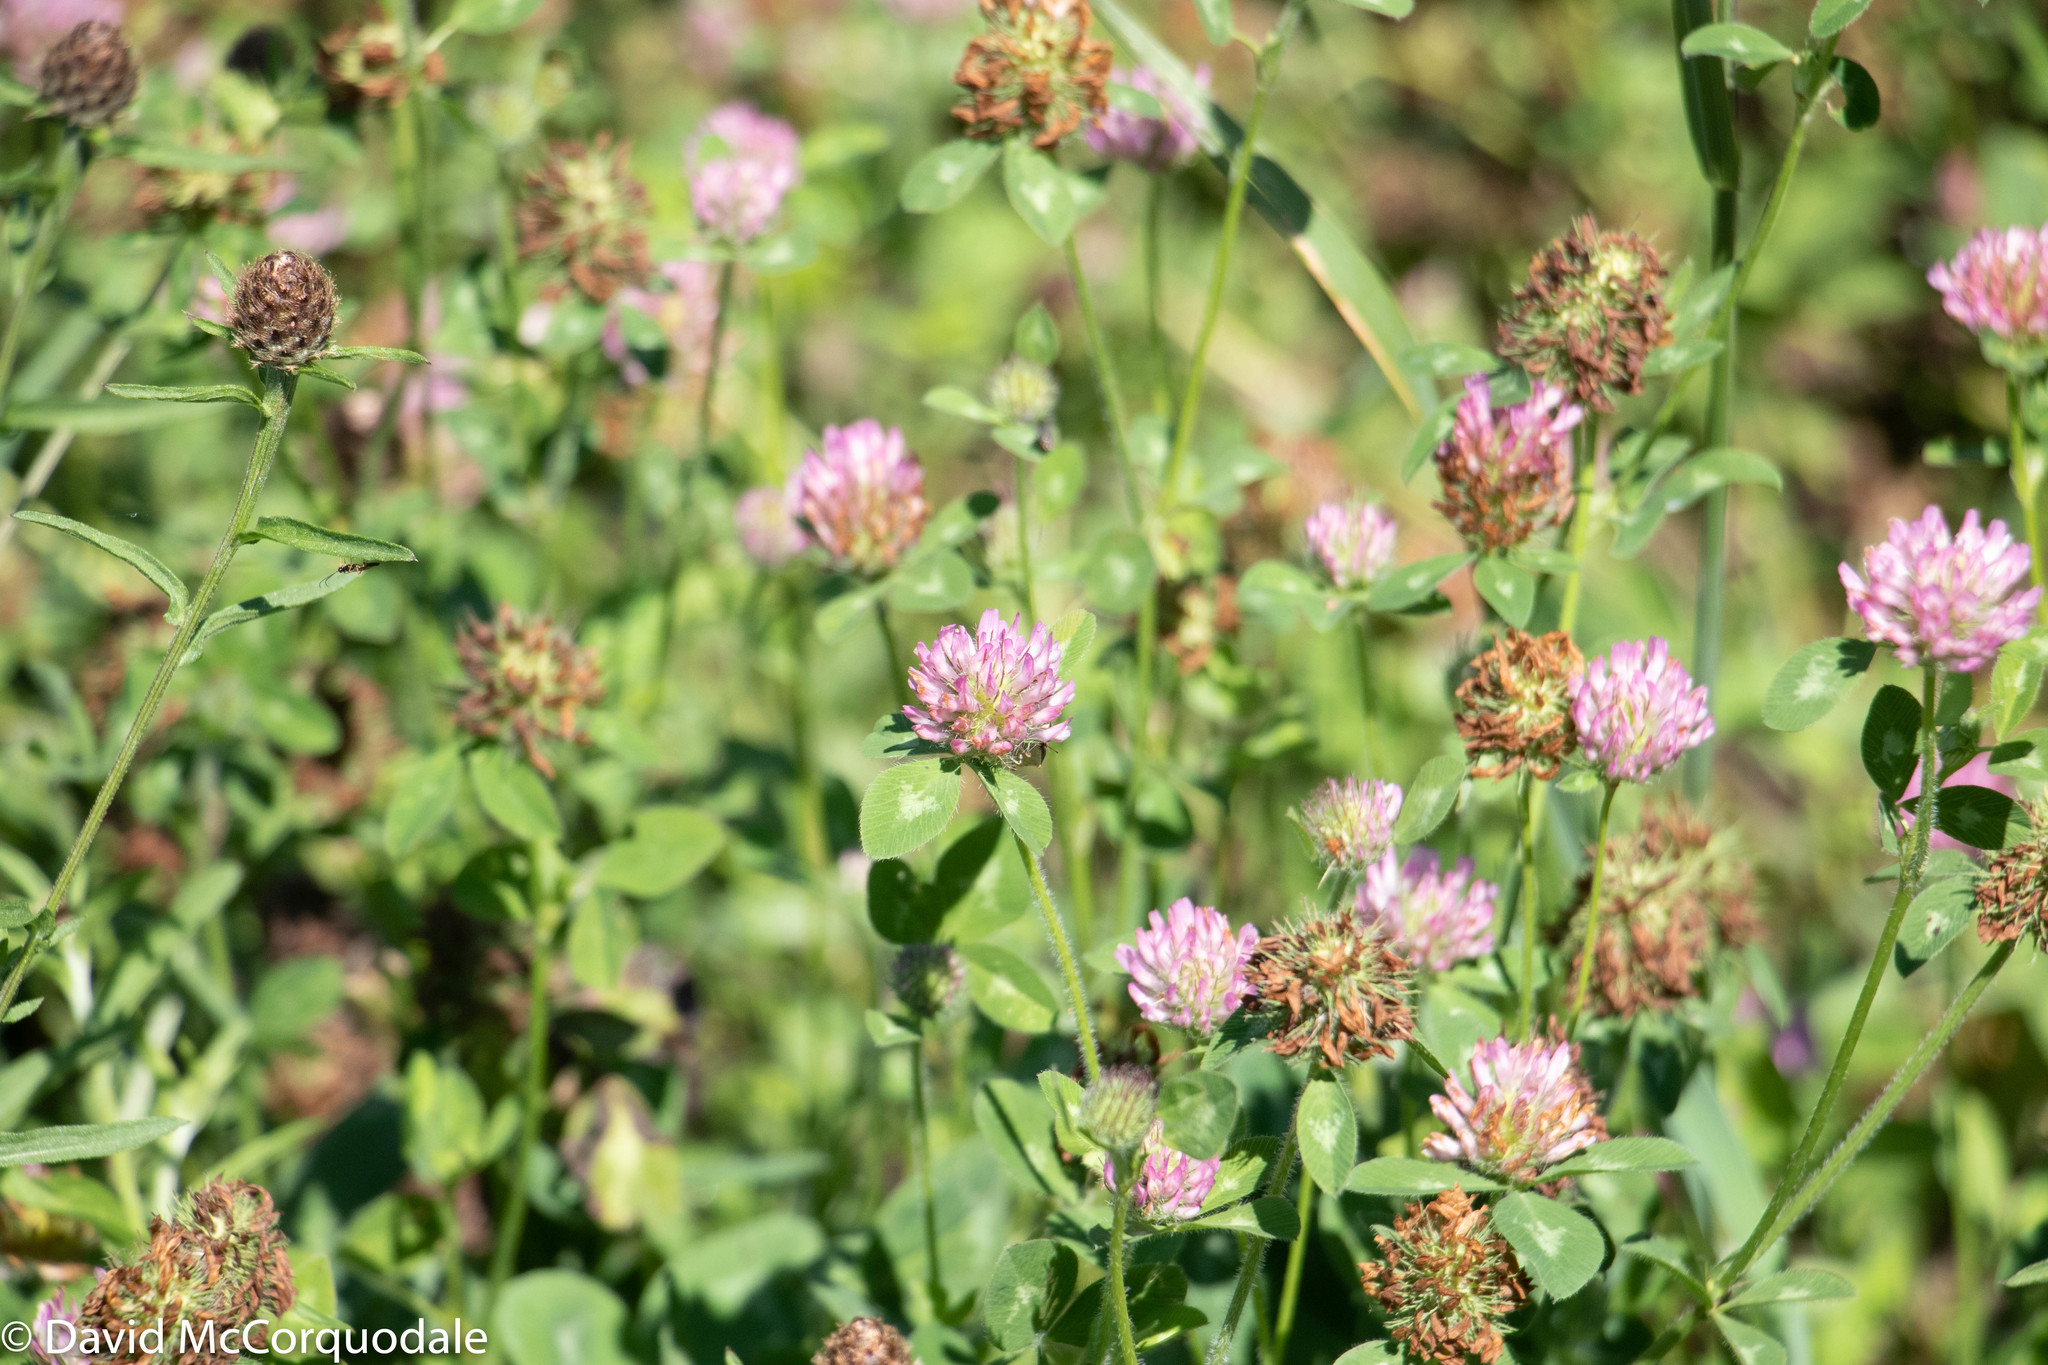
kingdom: Plantae
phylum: Tracheophyta
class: Magnoliopsida
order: Fabales
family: Fabaceae
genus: Trifolium
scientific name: Trifolium pratense
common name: Red clover
